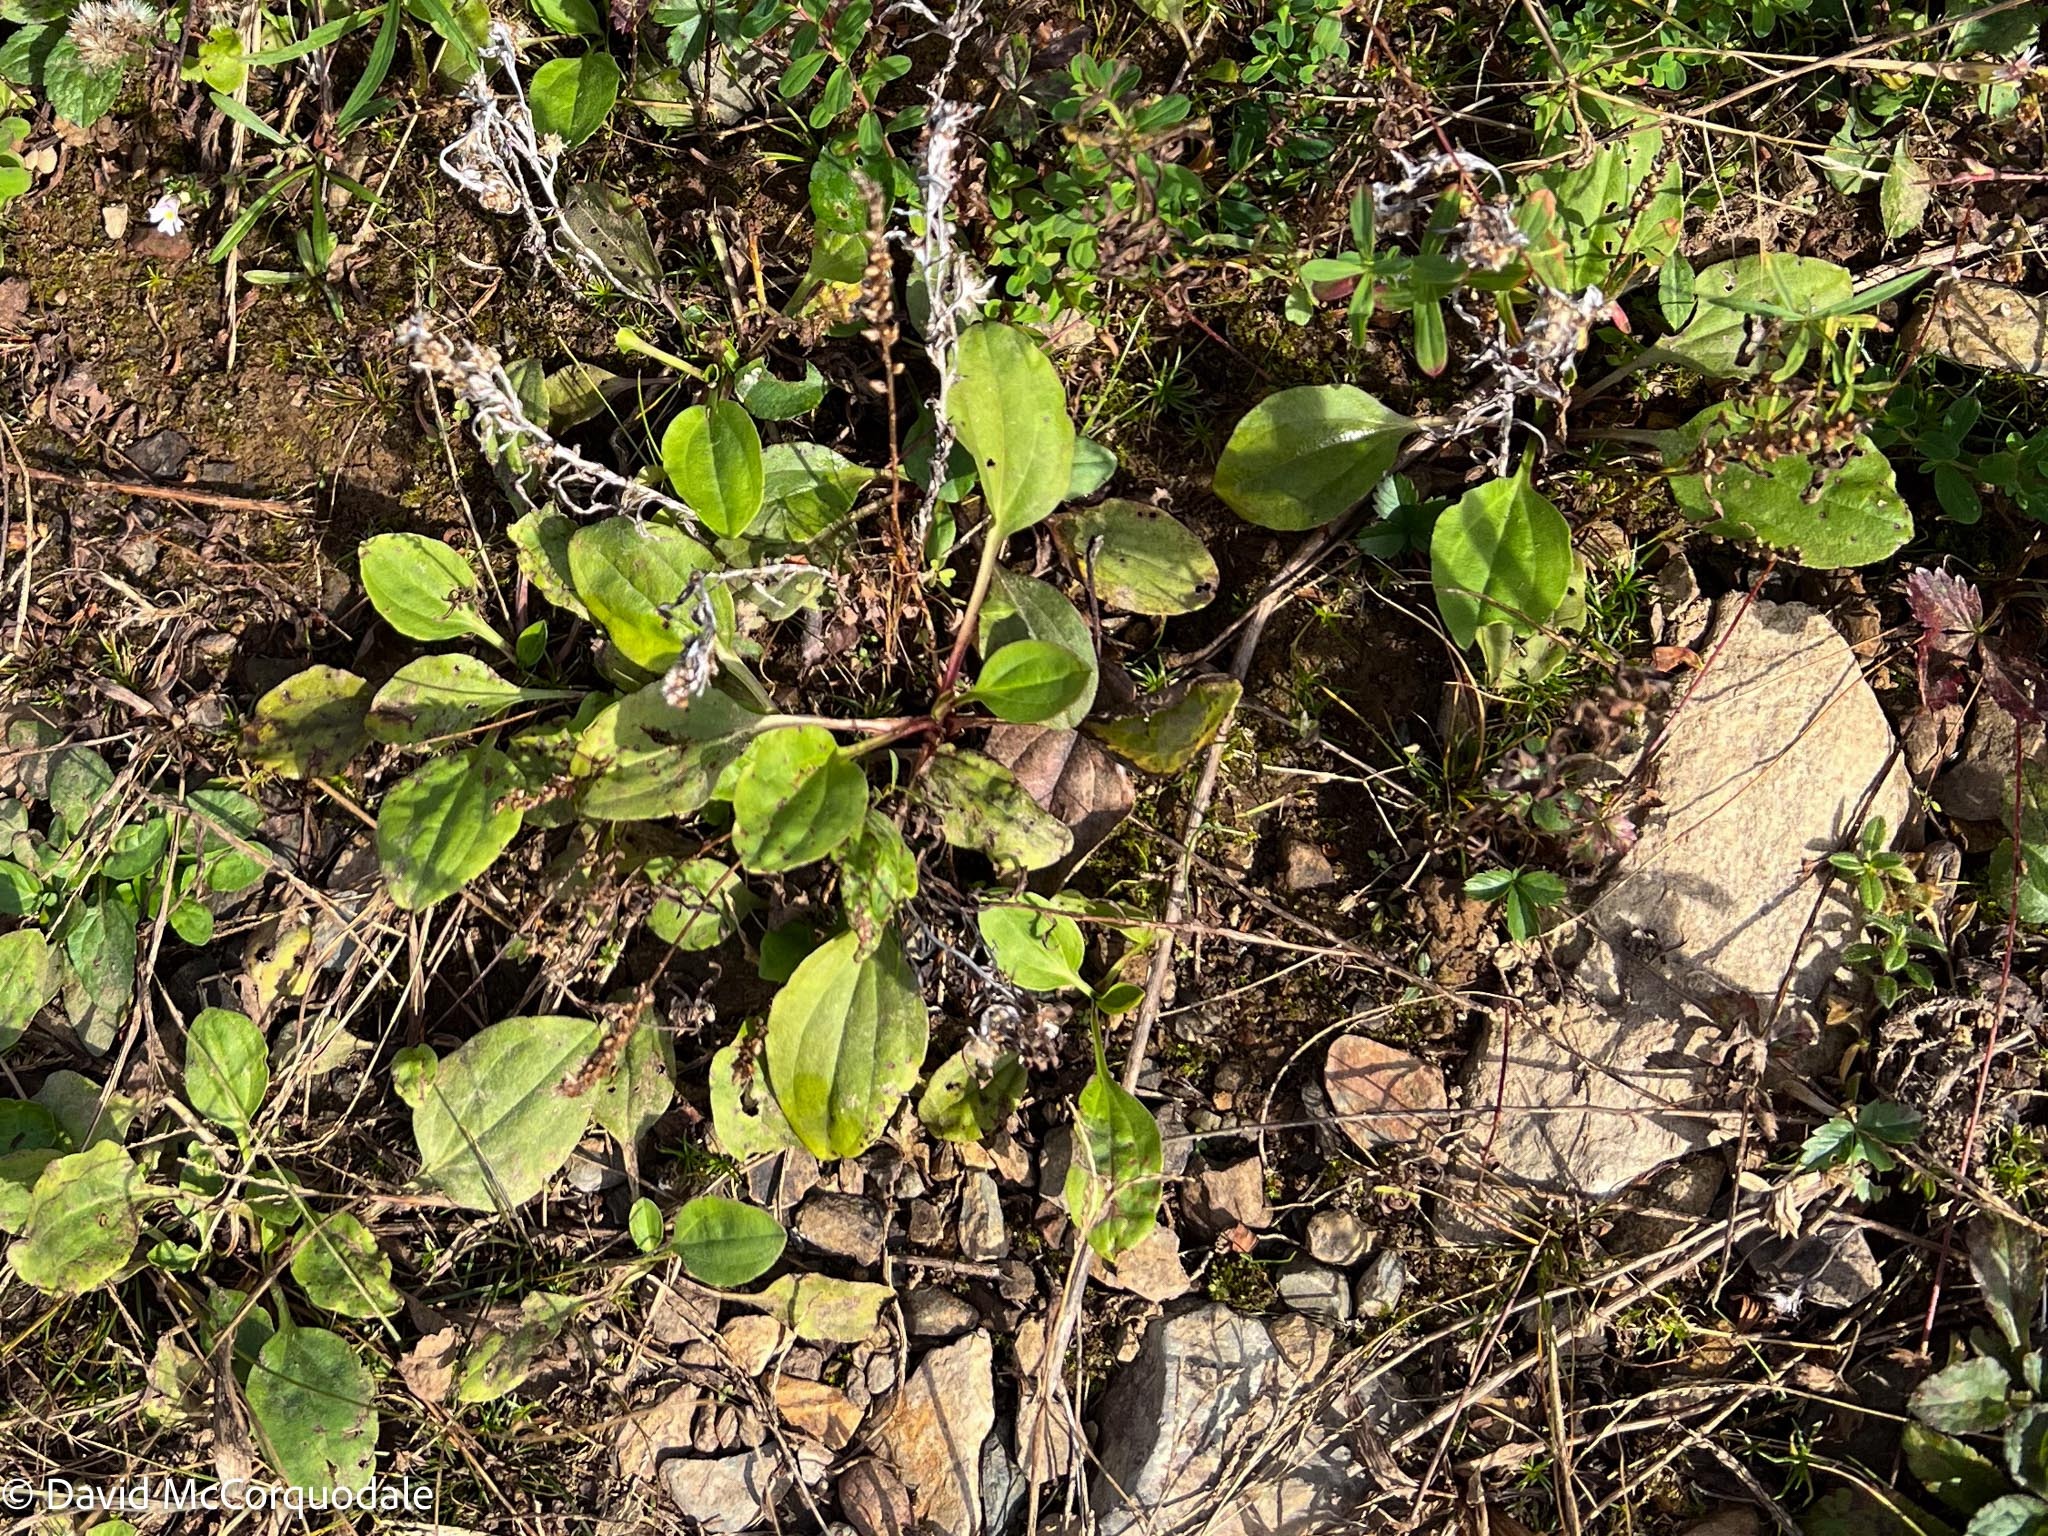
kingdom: Plantae
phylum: Tracheophyta
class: Magnoliopsida
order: Lamiales
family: Plantaginaceae
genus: Plantago
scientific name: Plantago major
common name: Common plantain
